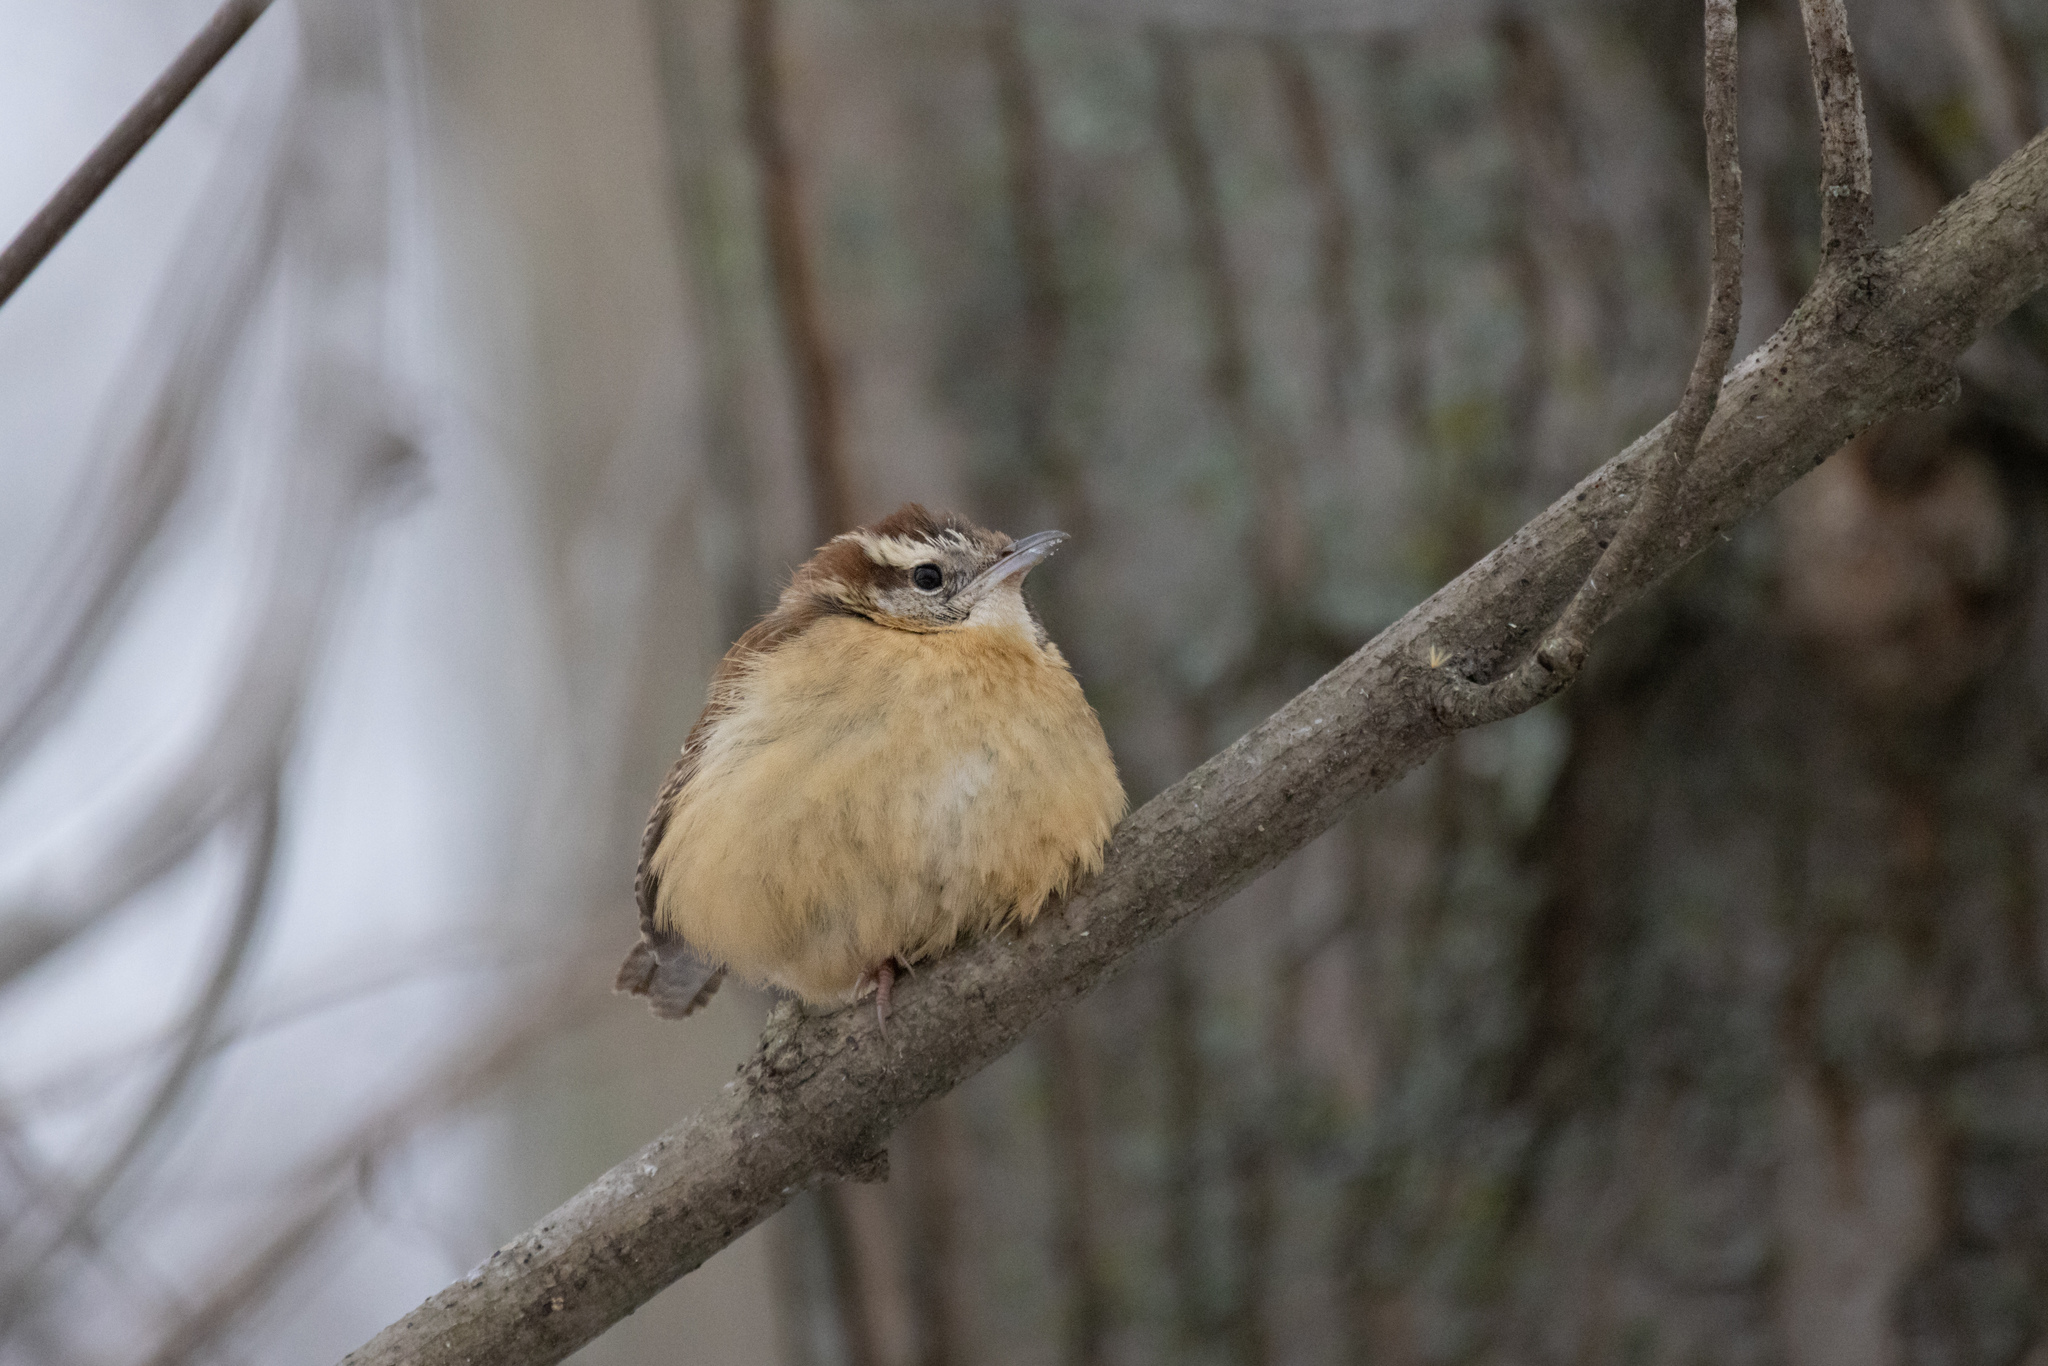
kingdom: Animalia
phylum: Chordata
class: Aves
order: Passeriformes
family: Troglodytidae
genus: Thryothorus
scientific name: Thryothorus ludovicianus
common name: Carolina wren
